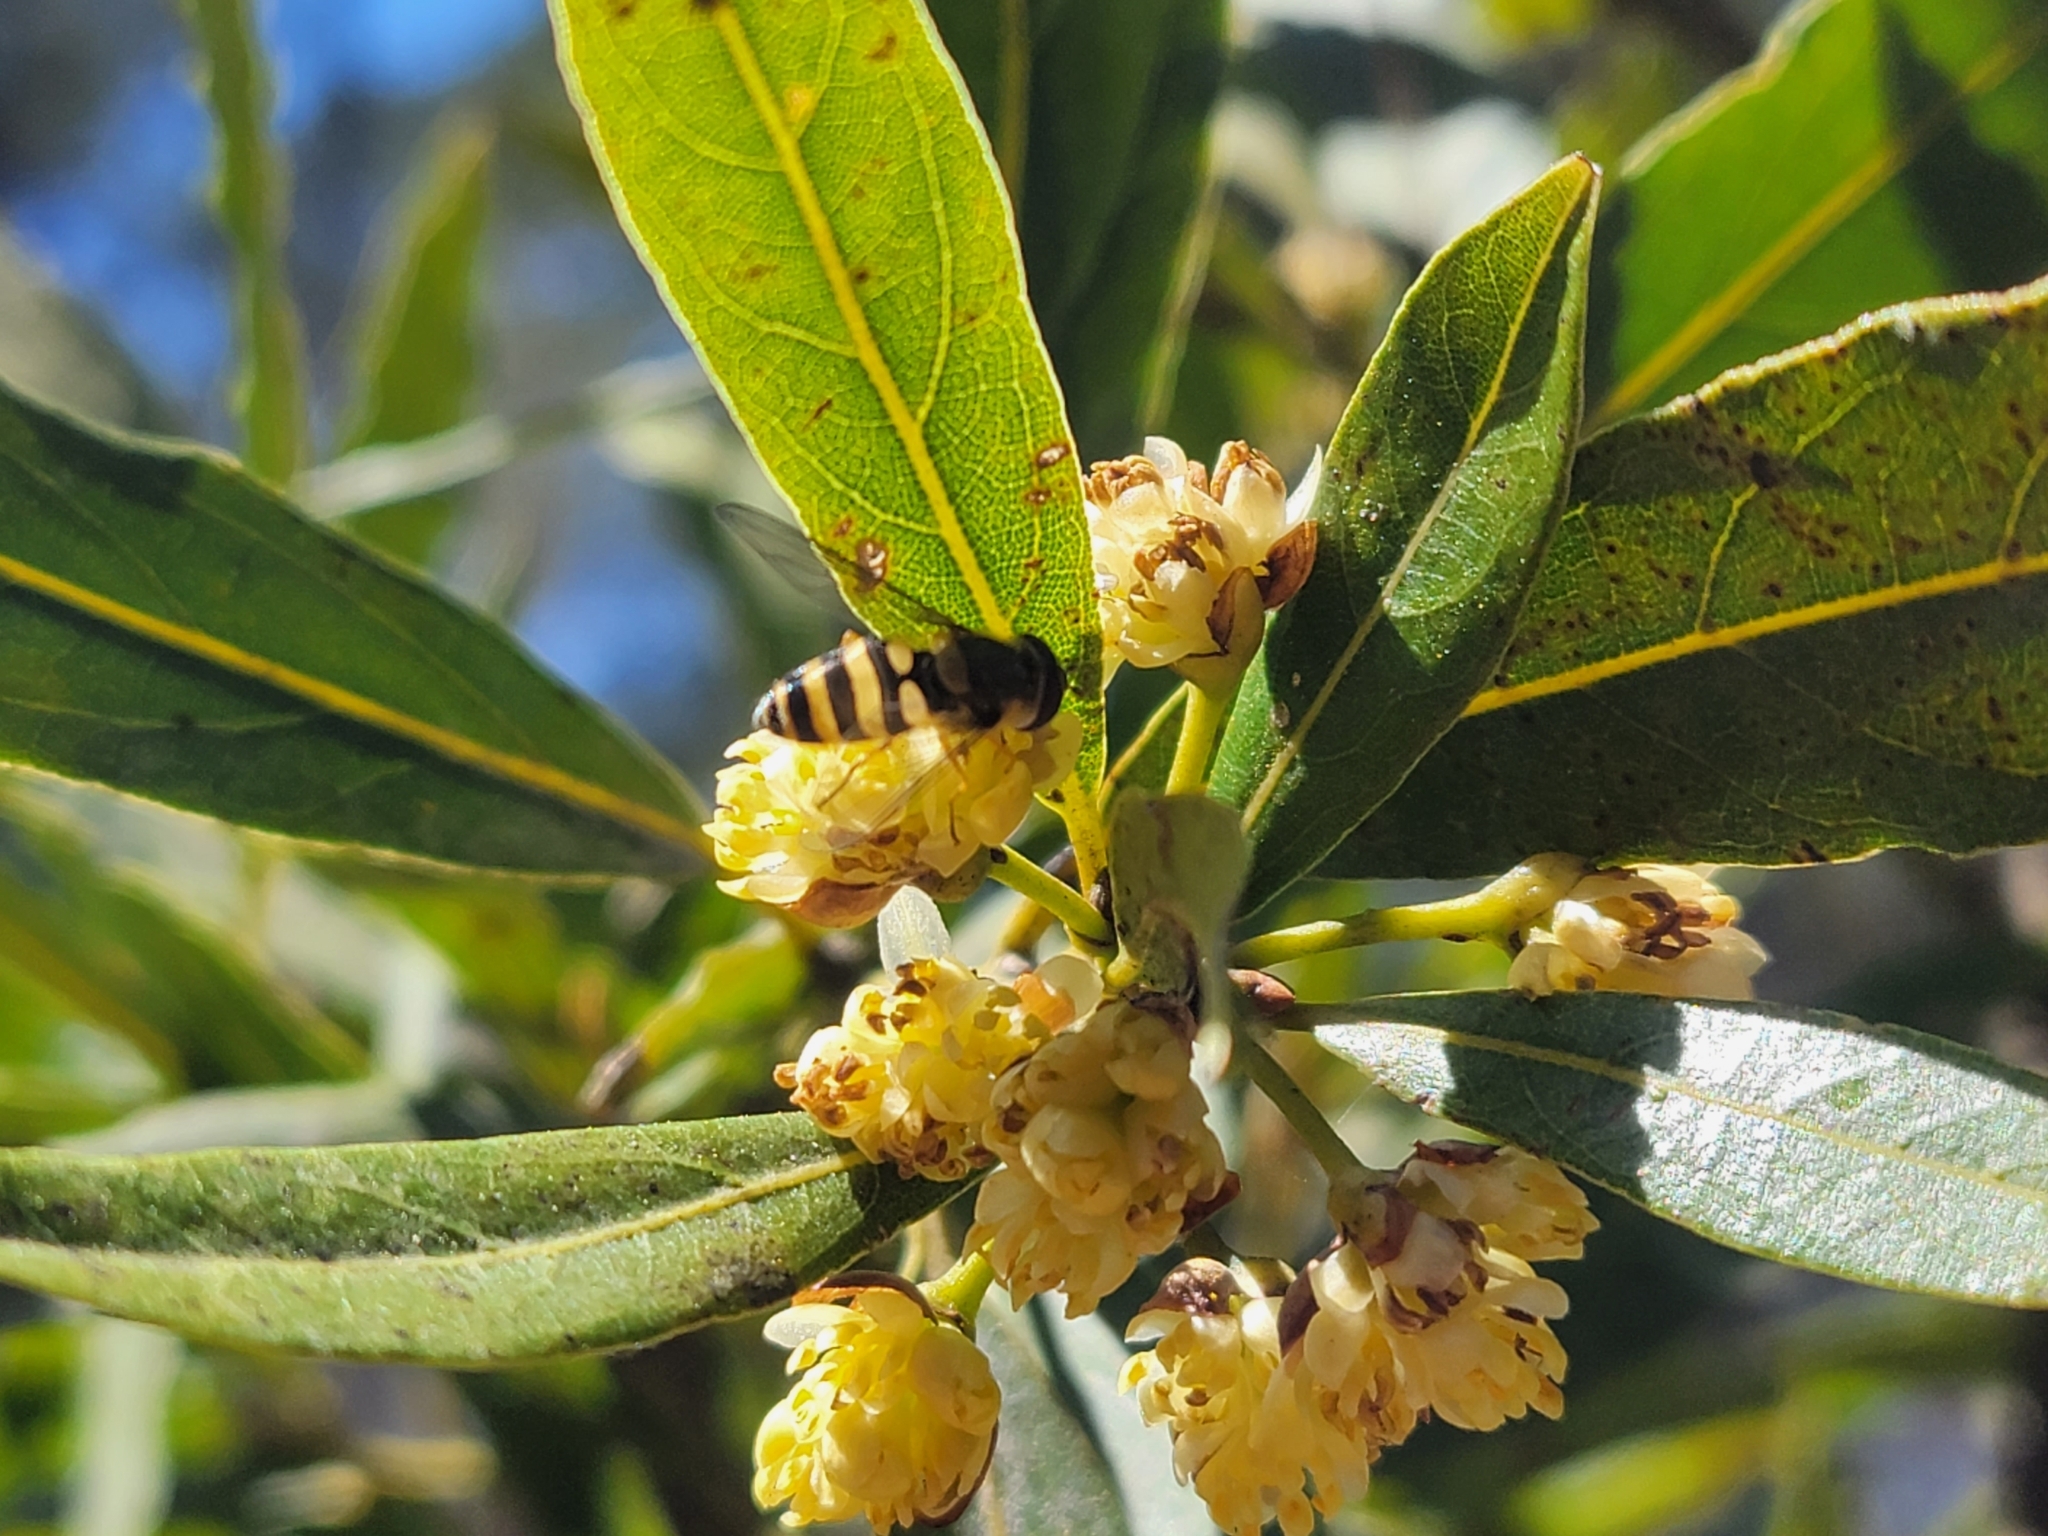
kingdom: Animalia
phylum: Arthropoda
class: Insecta
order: Diptera
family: Syrphidae
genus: Syrphus
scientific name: Syrphus
